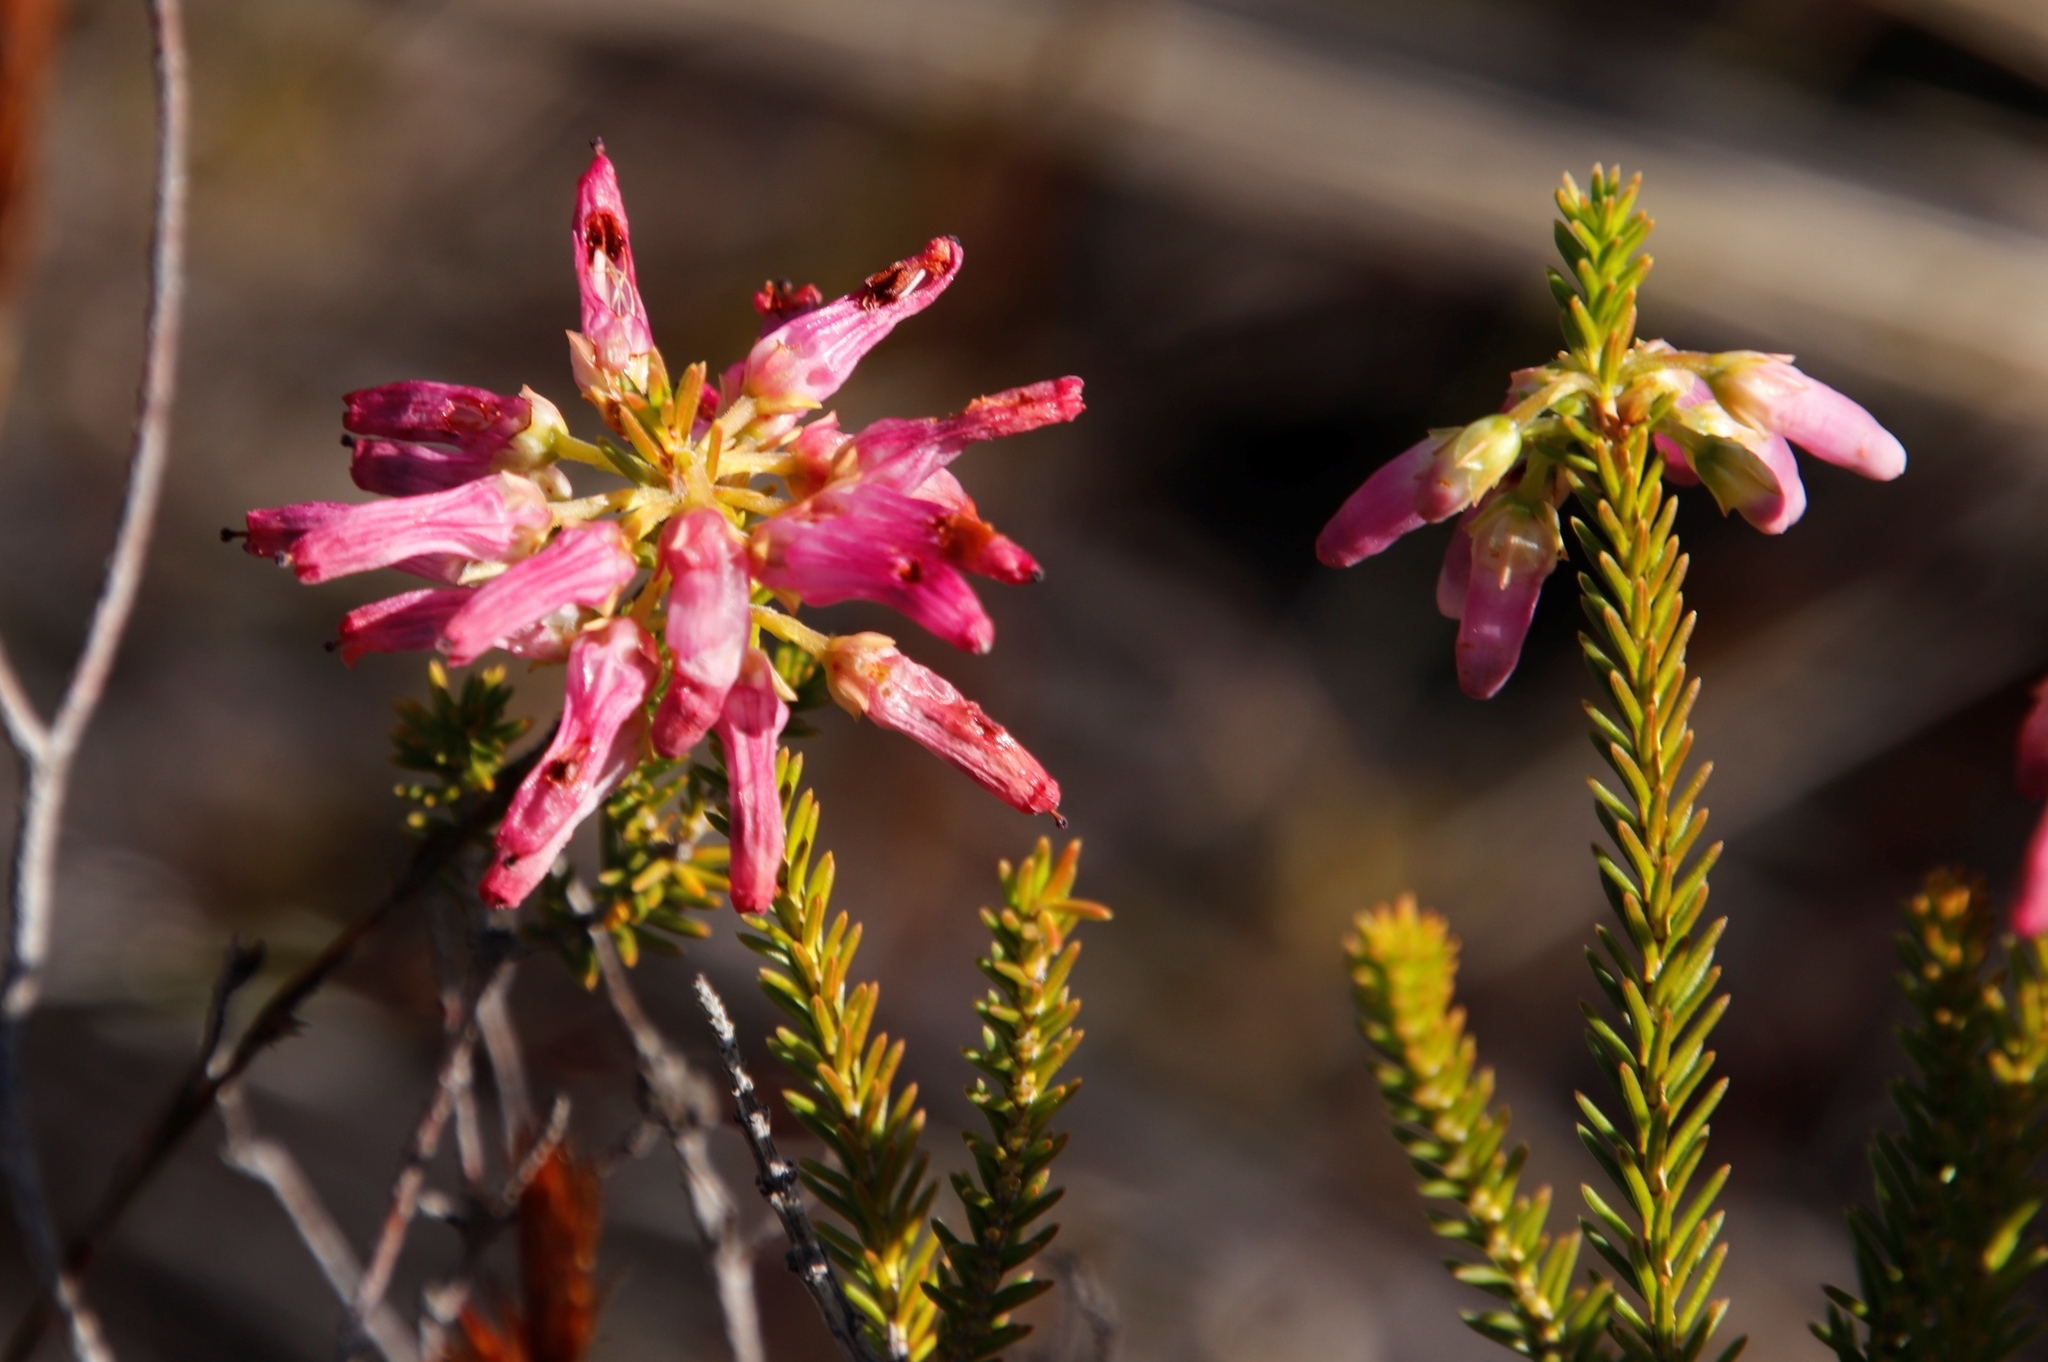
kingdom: Plantae
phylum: Tracheophyta
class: Magnoliopsida
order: Ericales
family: Ericaceae
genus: Erica
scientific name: Erica mammosa
